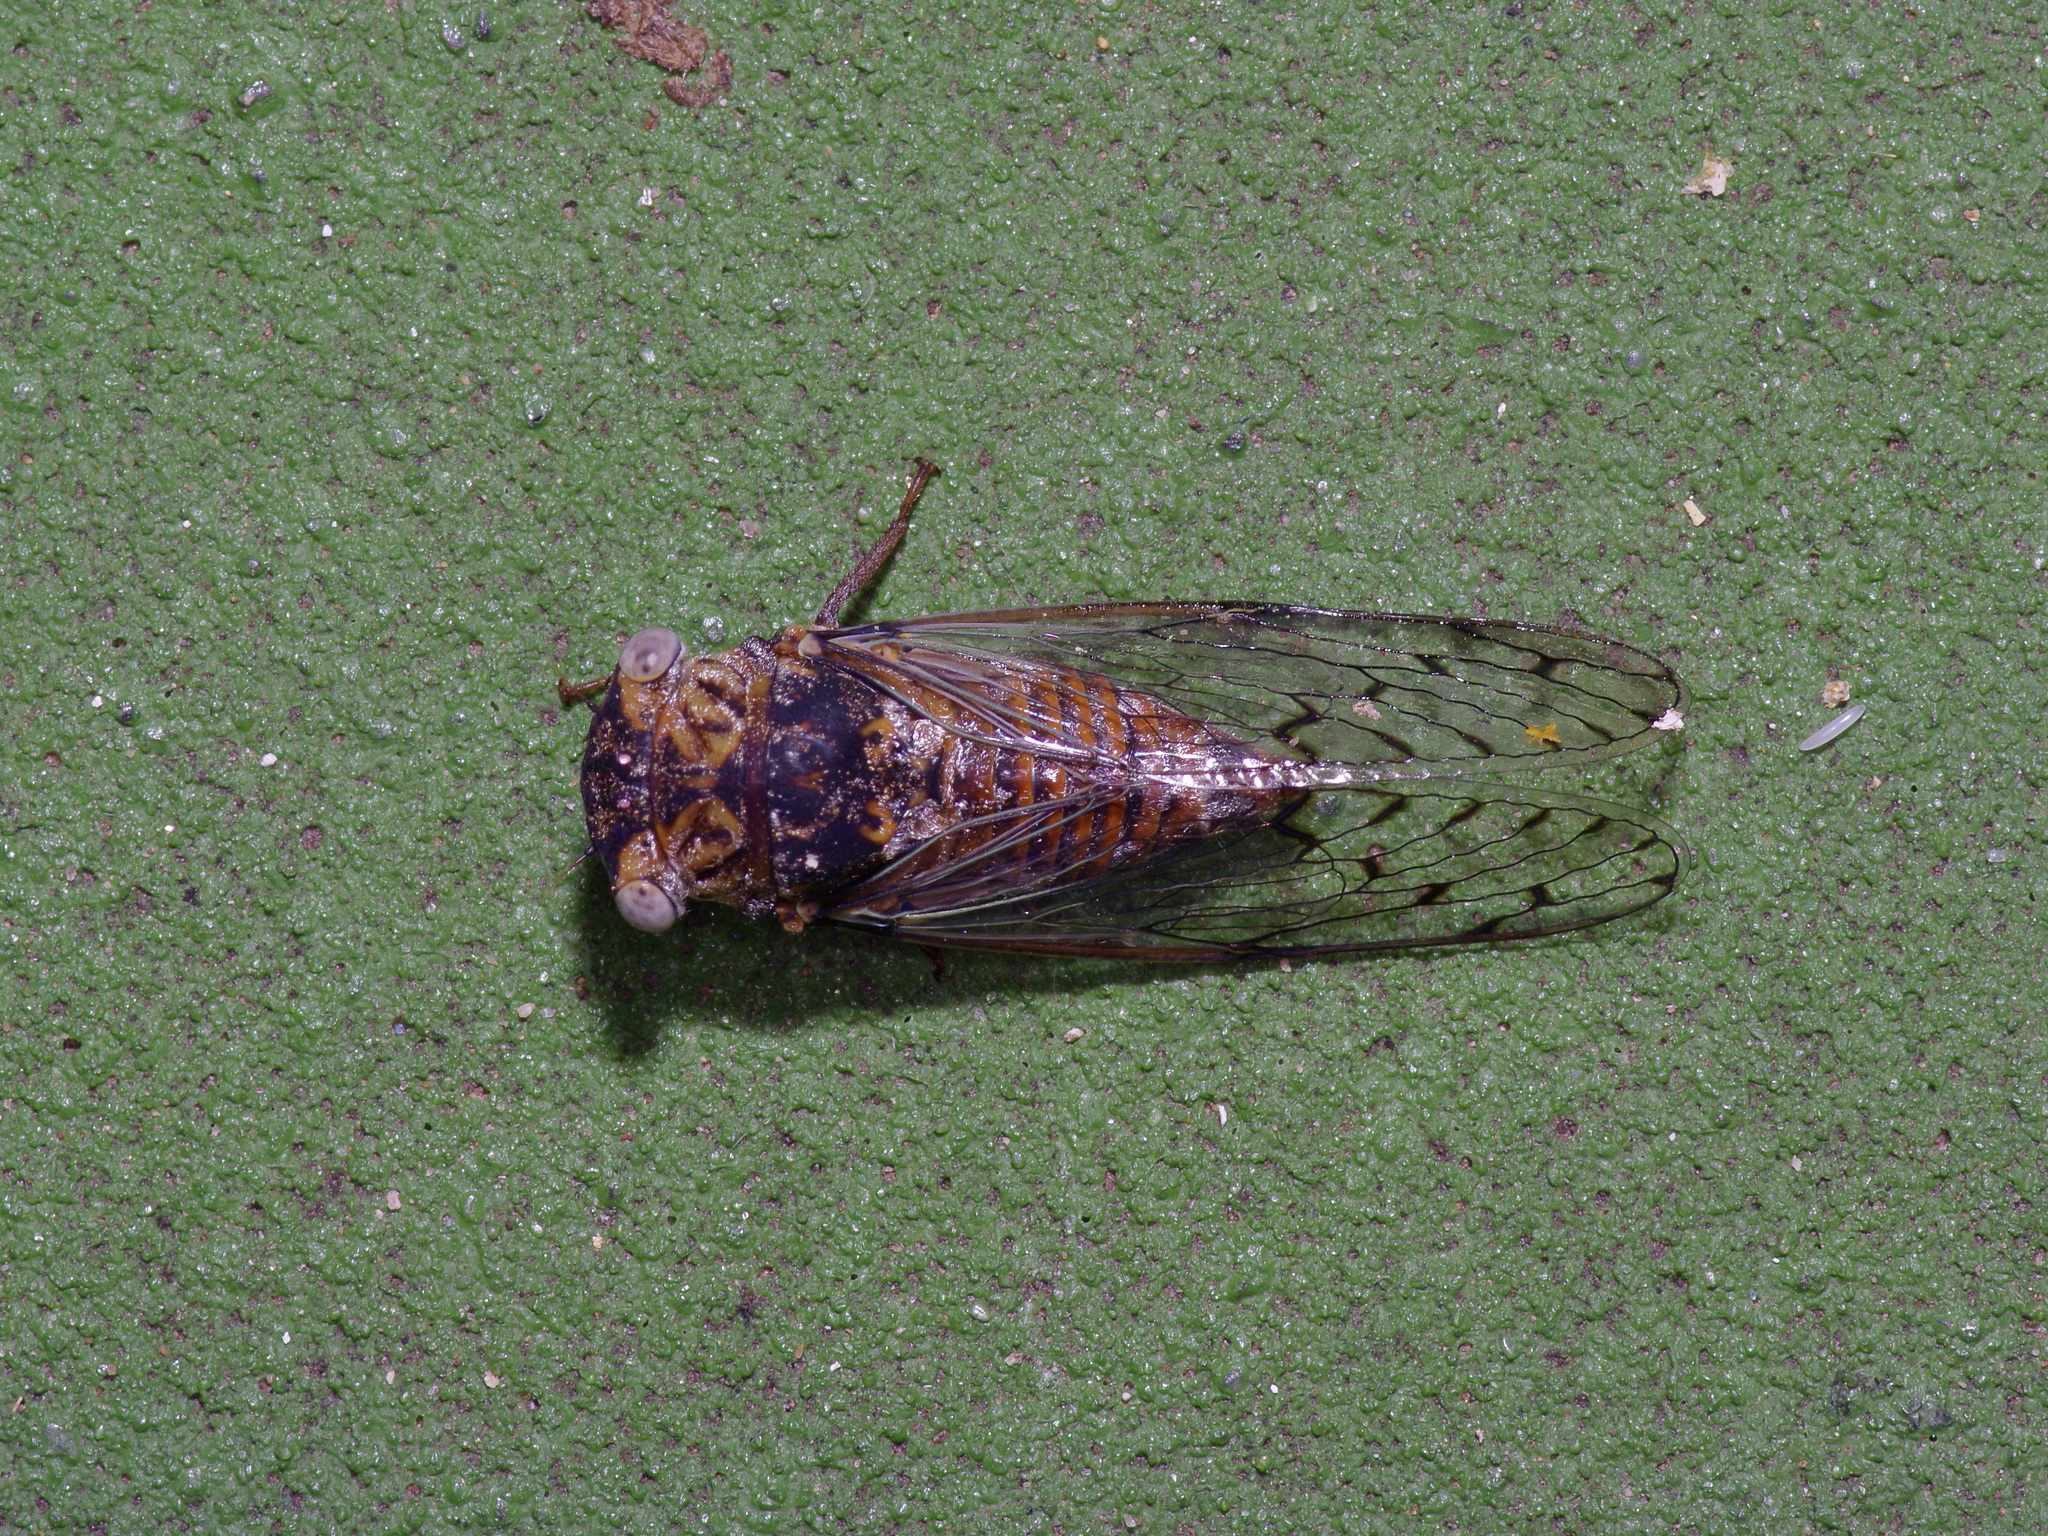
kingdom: Animalia
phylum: Arthropoda
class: Insecta
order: Hemiptera
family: Cicadidae
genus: Pacarina
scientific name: Pacarina puella
